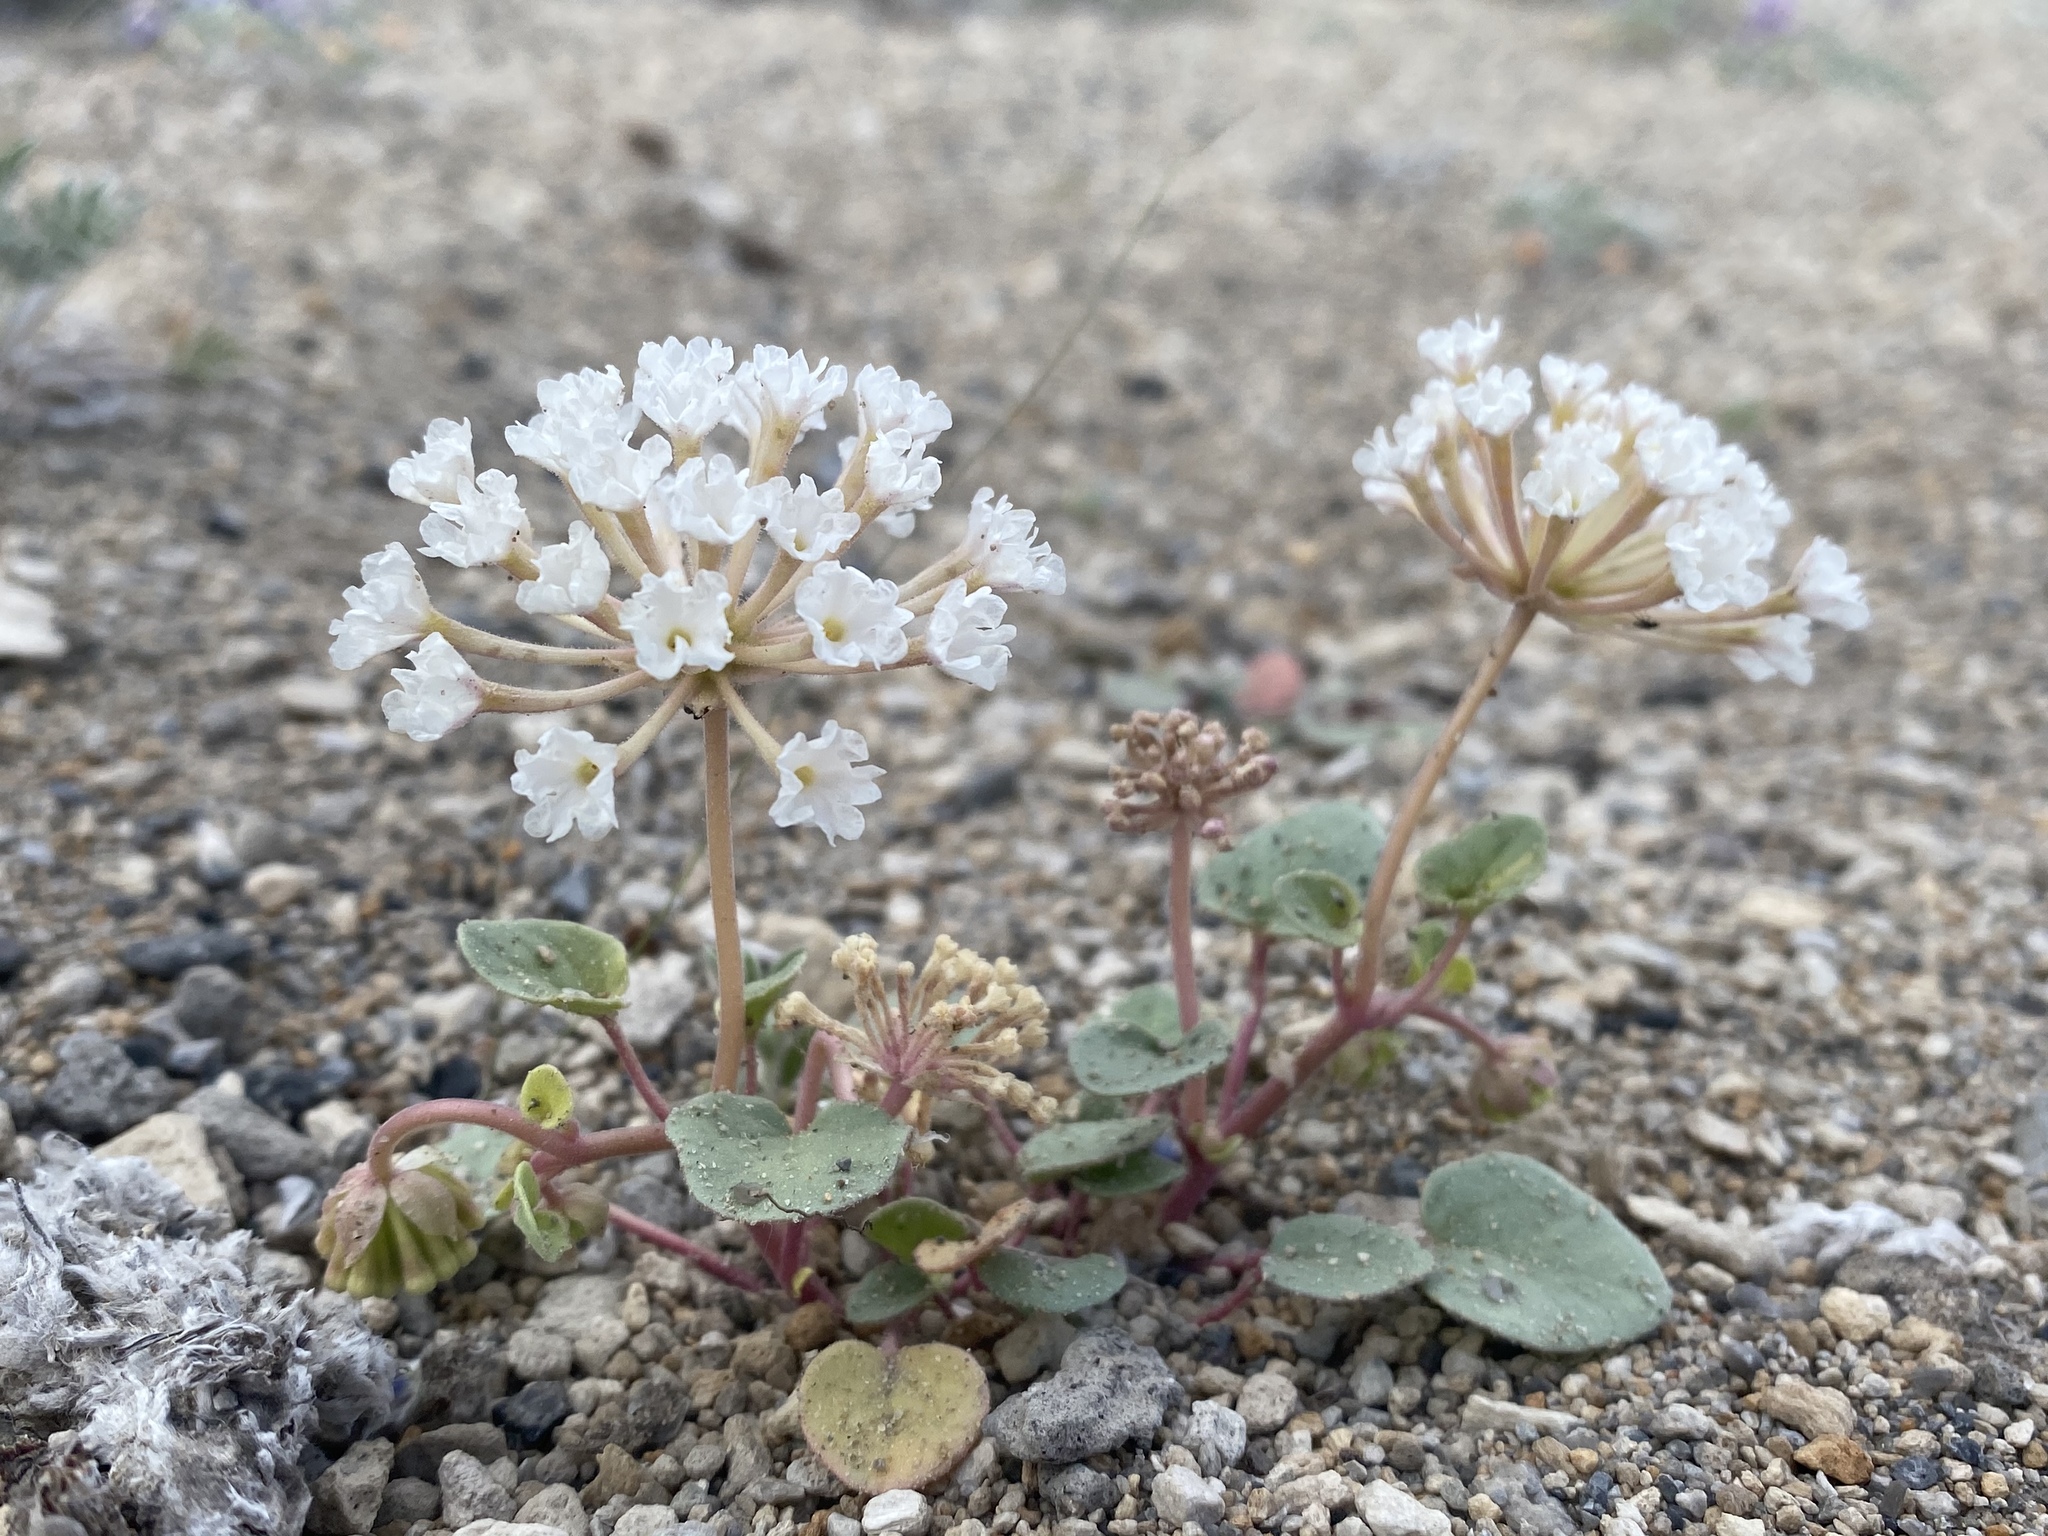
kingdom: Plantae
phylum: Tracheophyta
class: Magnoliopsida
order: Caryophyllales
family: Nyctaginaceae
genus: Abronia
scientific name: Abronia turbinata
